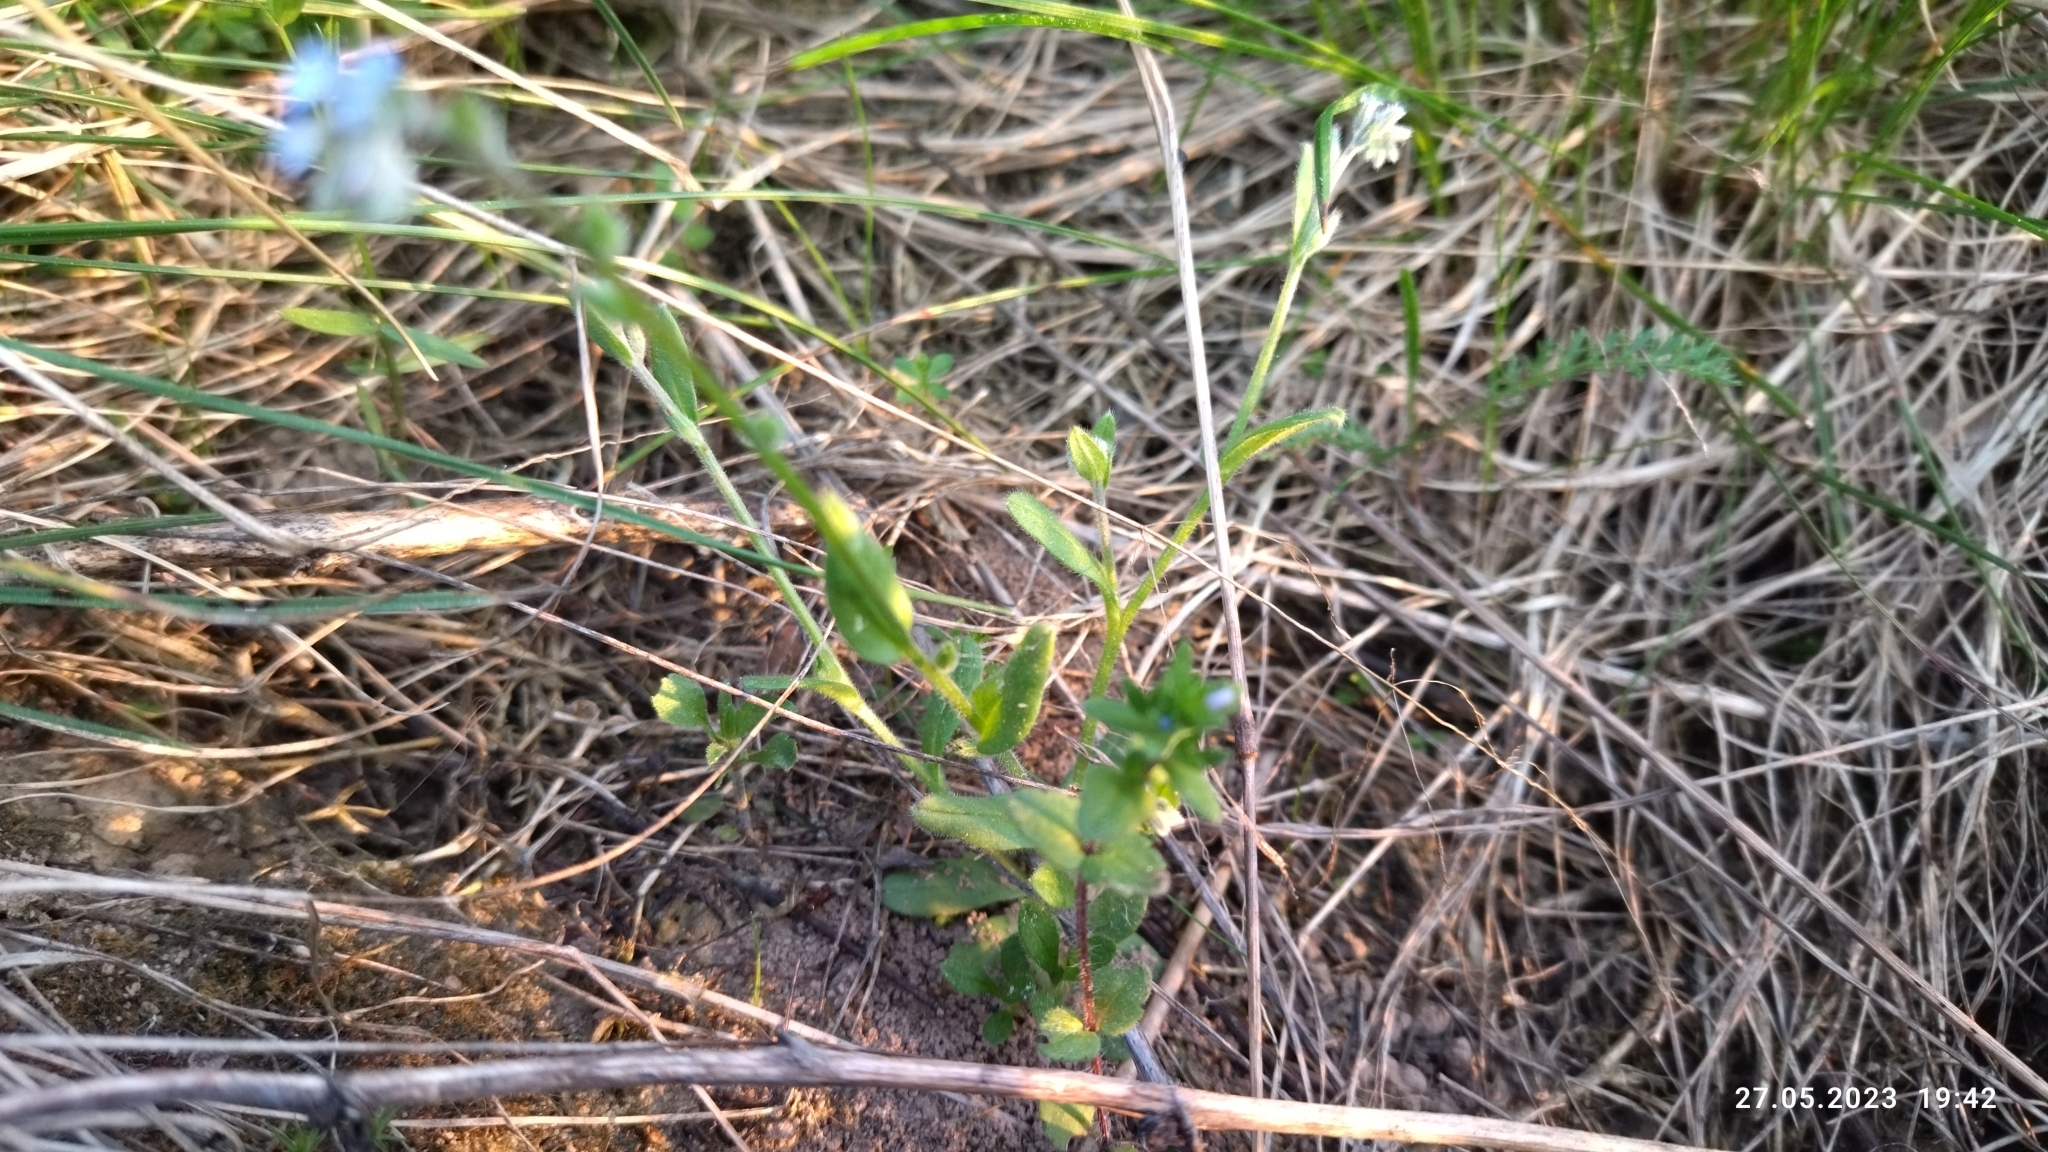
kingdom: Plantae
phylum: Tracheophyta
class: Magnoliopsida
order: Boraginales
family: Boraginaceae
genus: Myosotis
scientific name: Myosotis arvensis
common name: Field forget-me-not
